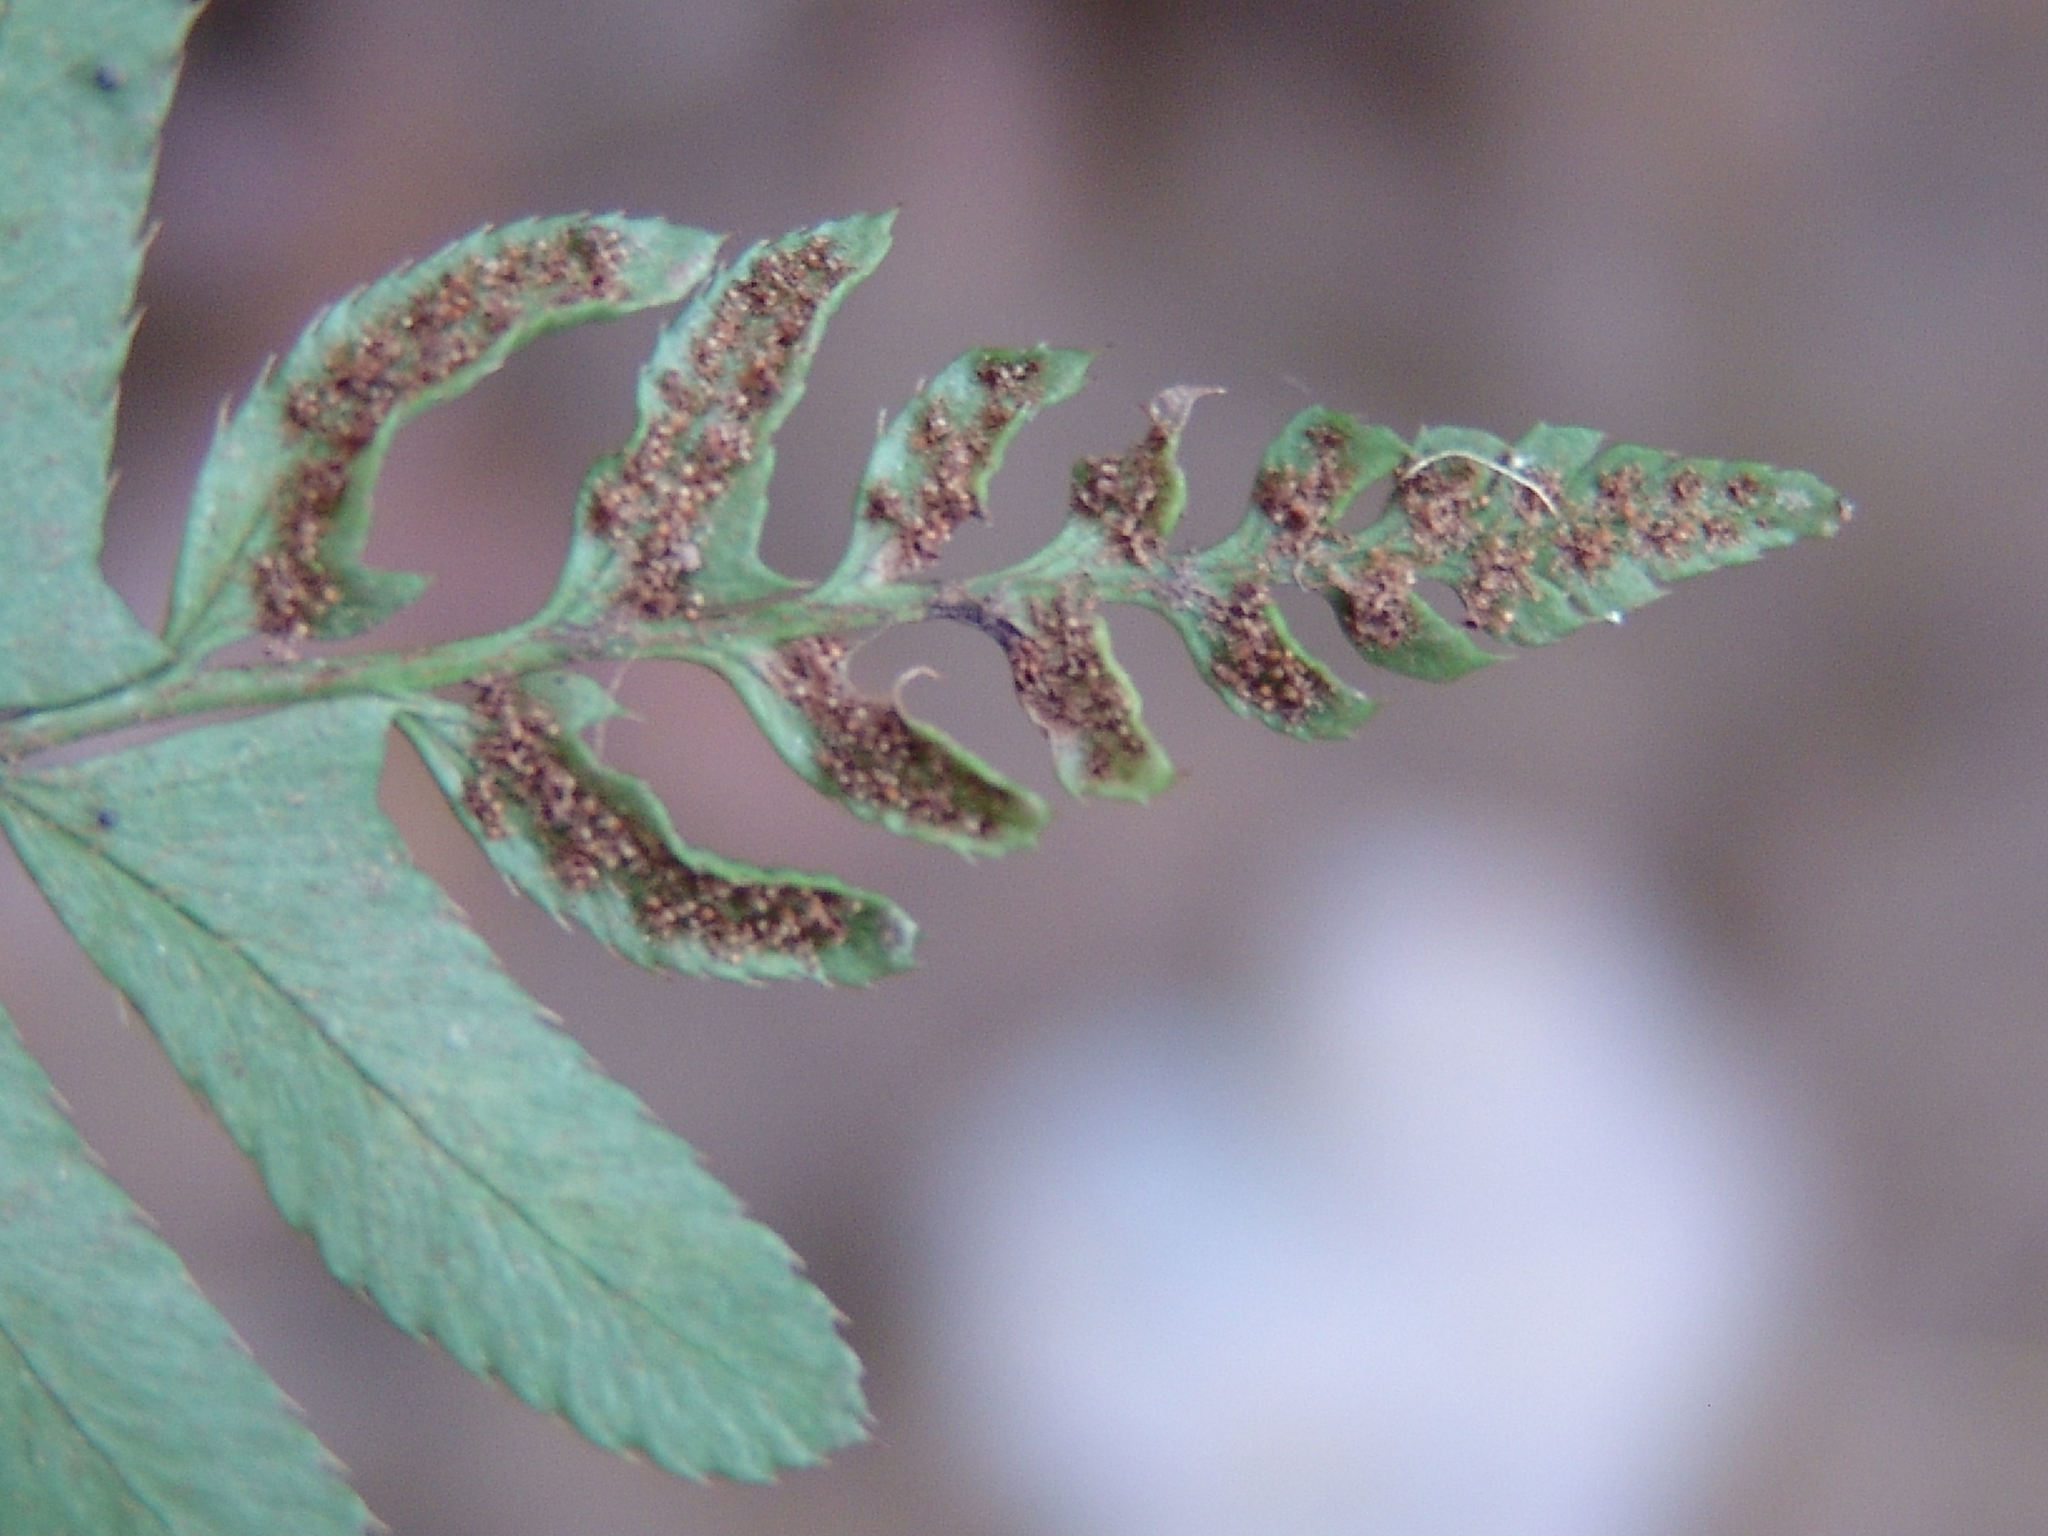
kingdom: Plantae
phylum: Tracheophyta
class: Polypodiopsida
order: Polypodiales
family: Dryopteridaceae
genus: Polystichum
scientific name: Polystichum acrostichoides
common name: Christmas fern
